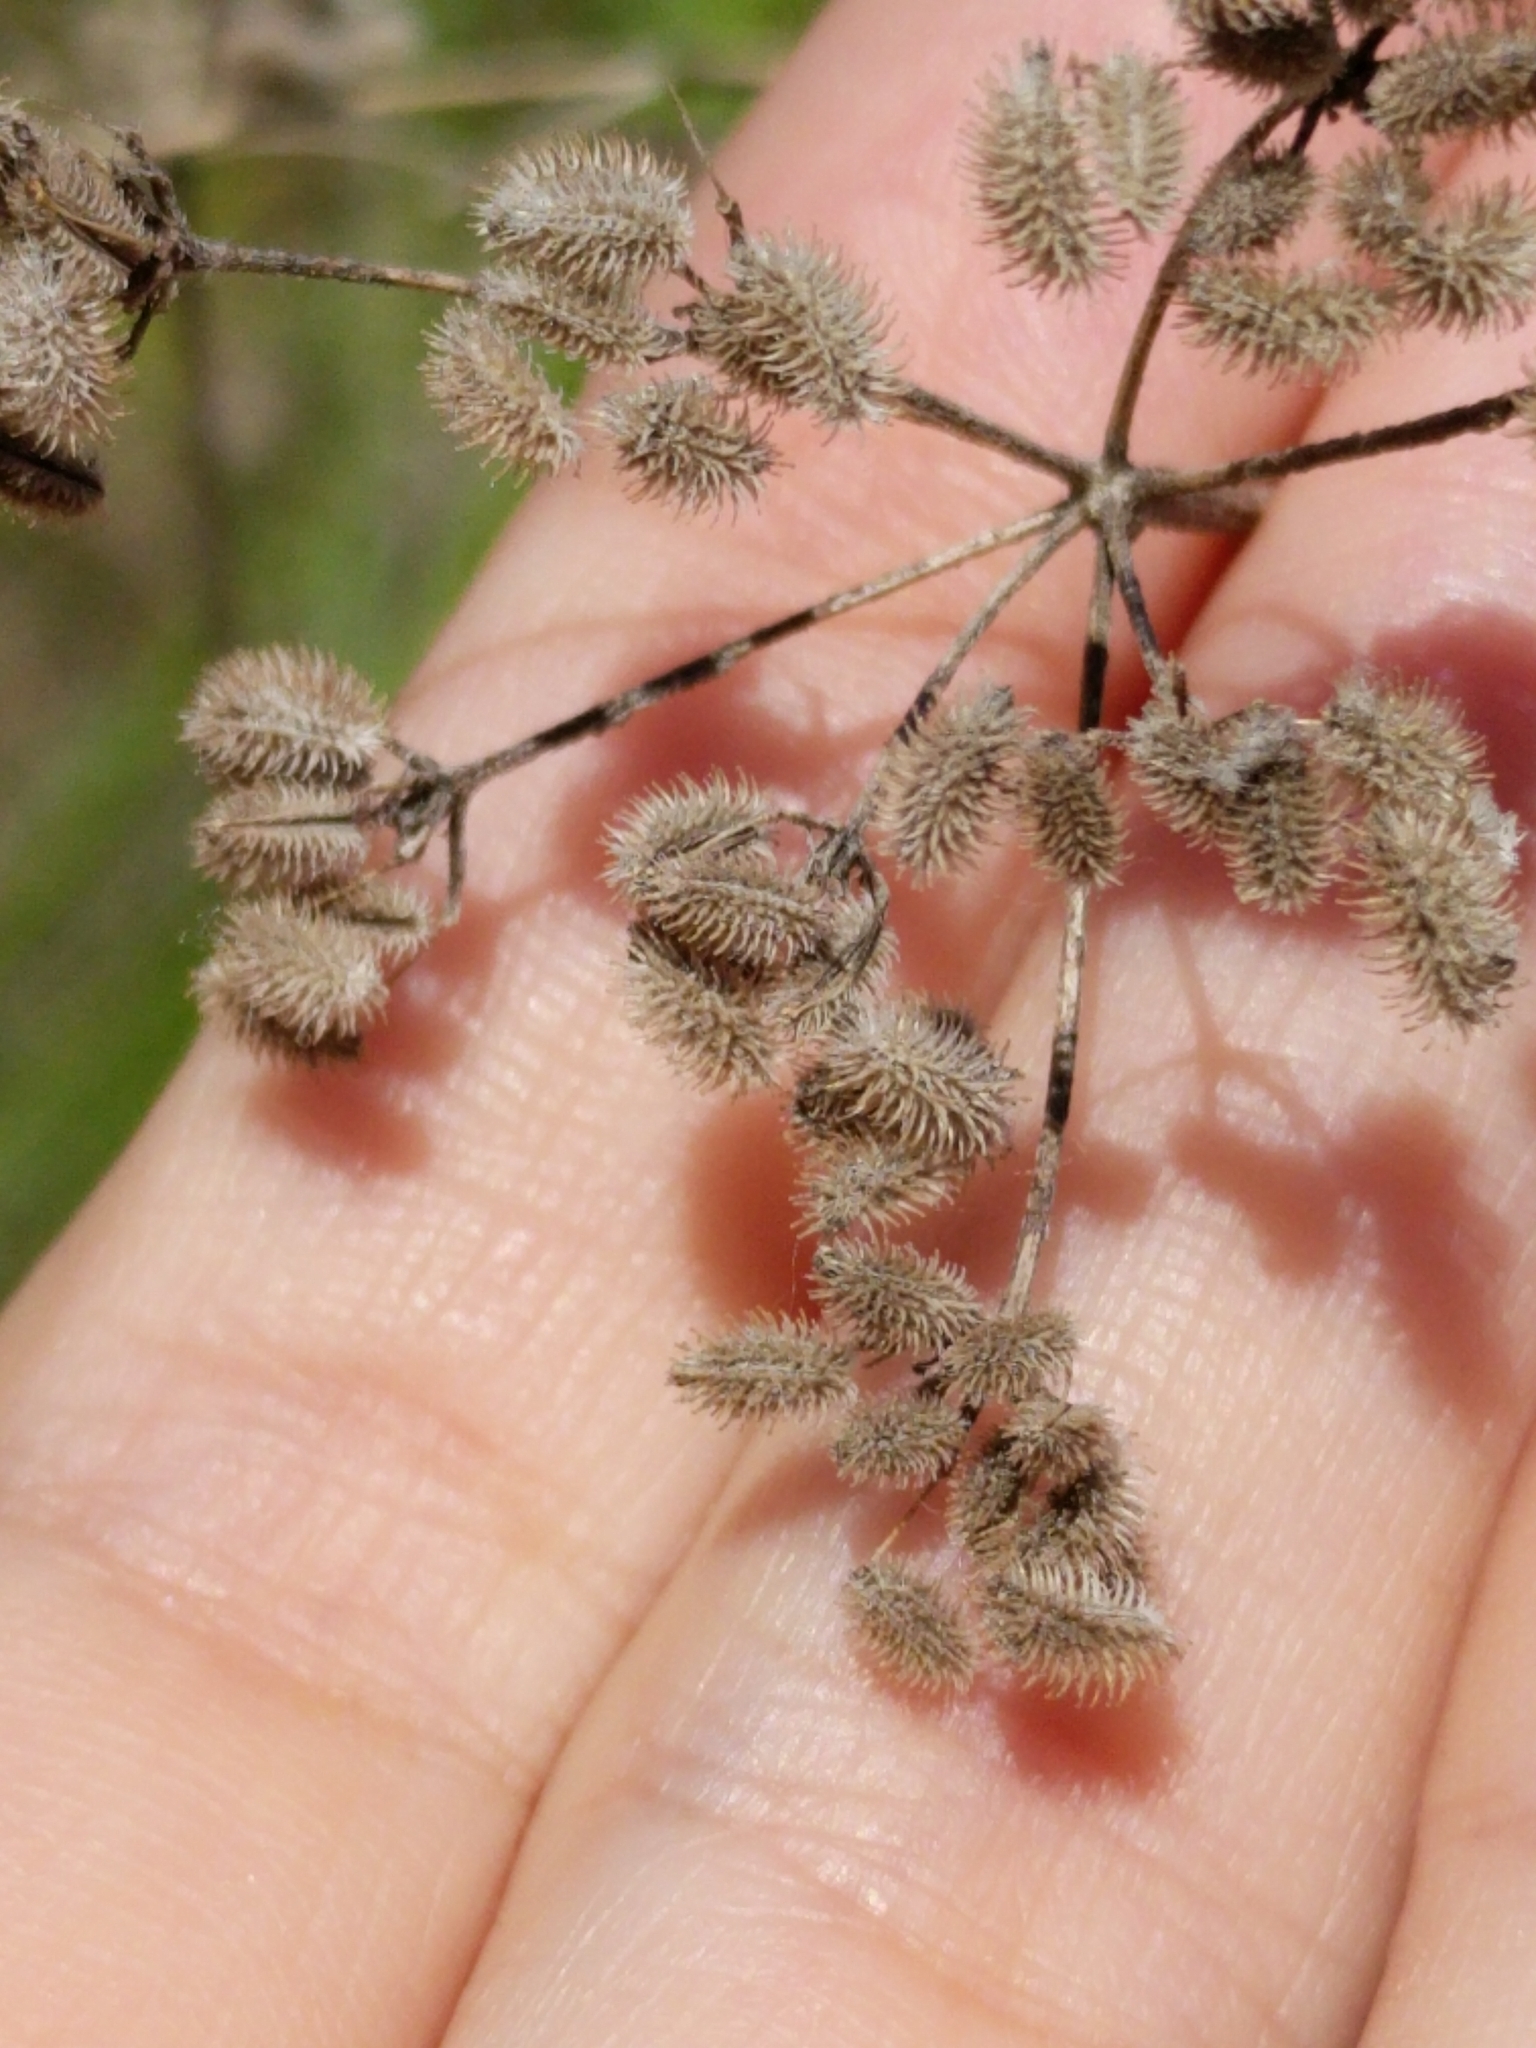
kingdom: Plantae
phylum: Tracheophyta
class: Magnoliopsida
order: Apiales
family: Apiaceae
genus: Torilis
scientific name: Torilis arvensis
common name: Spreading hedge-parsley
